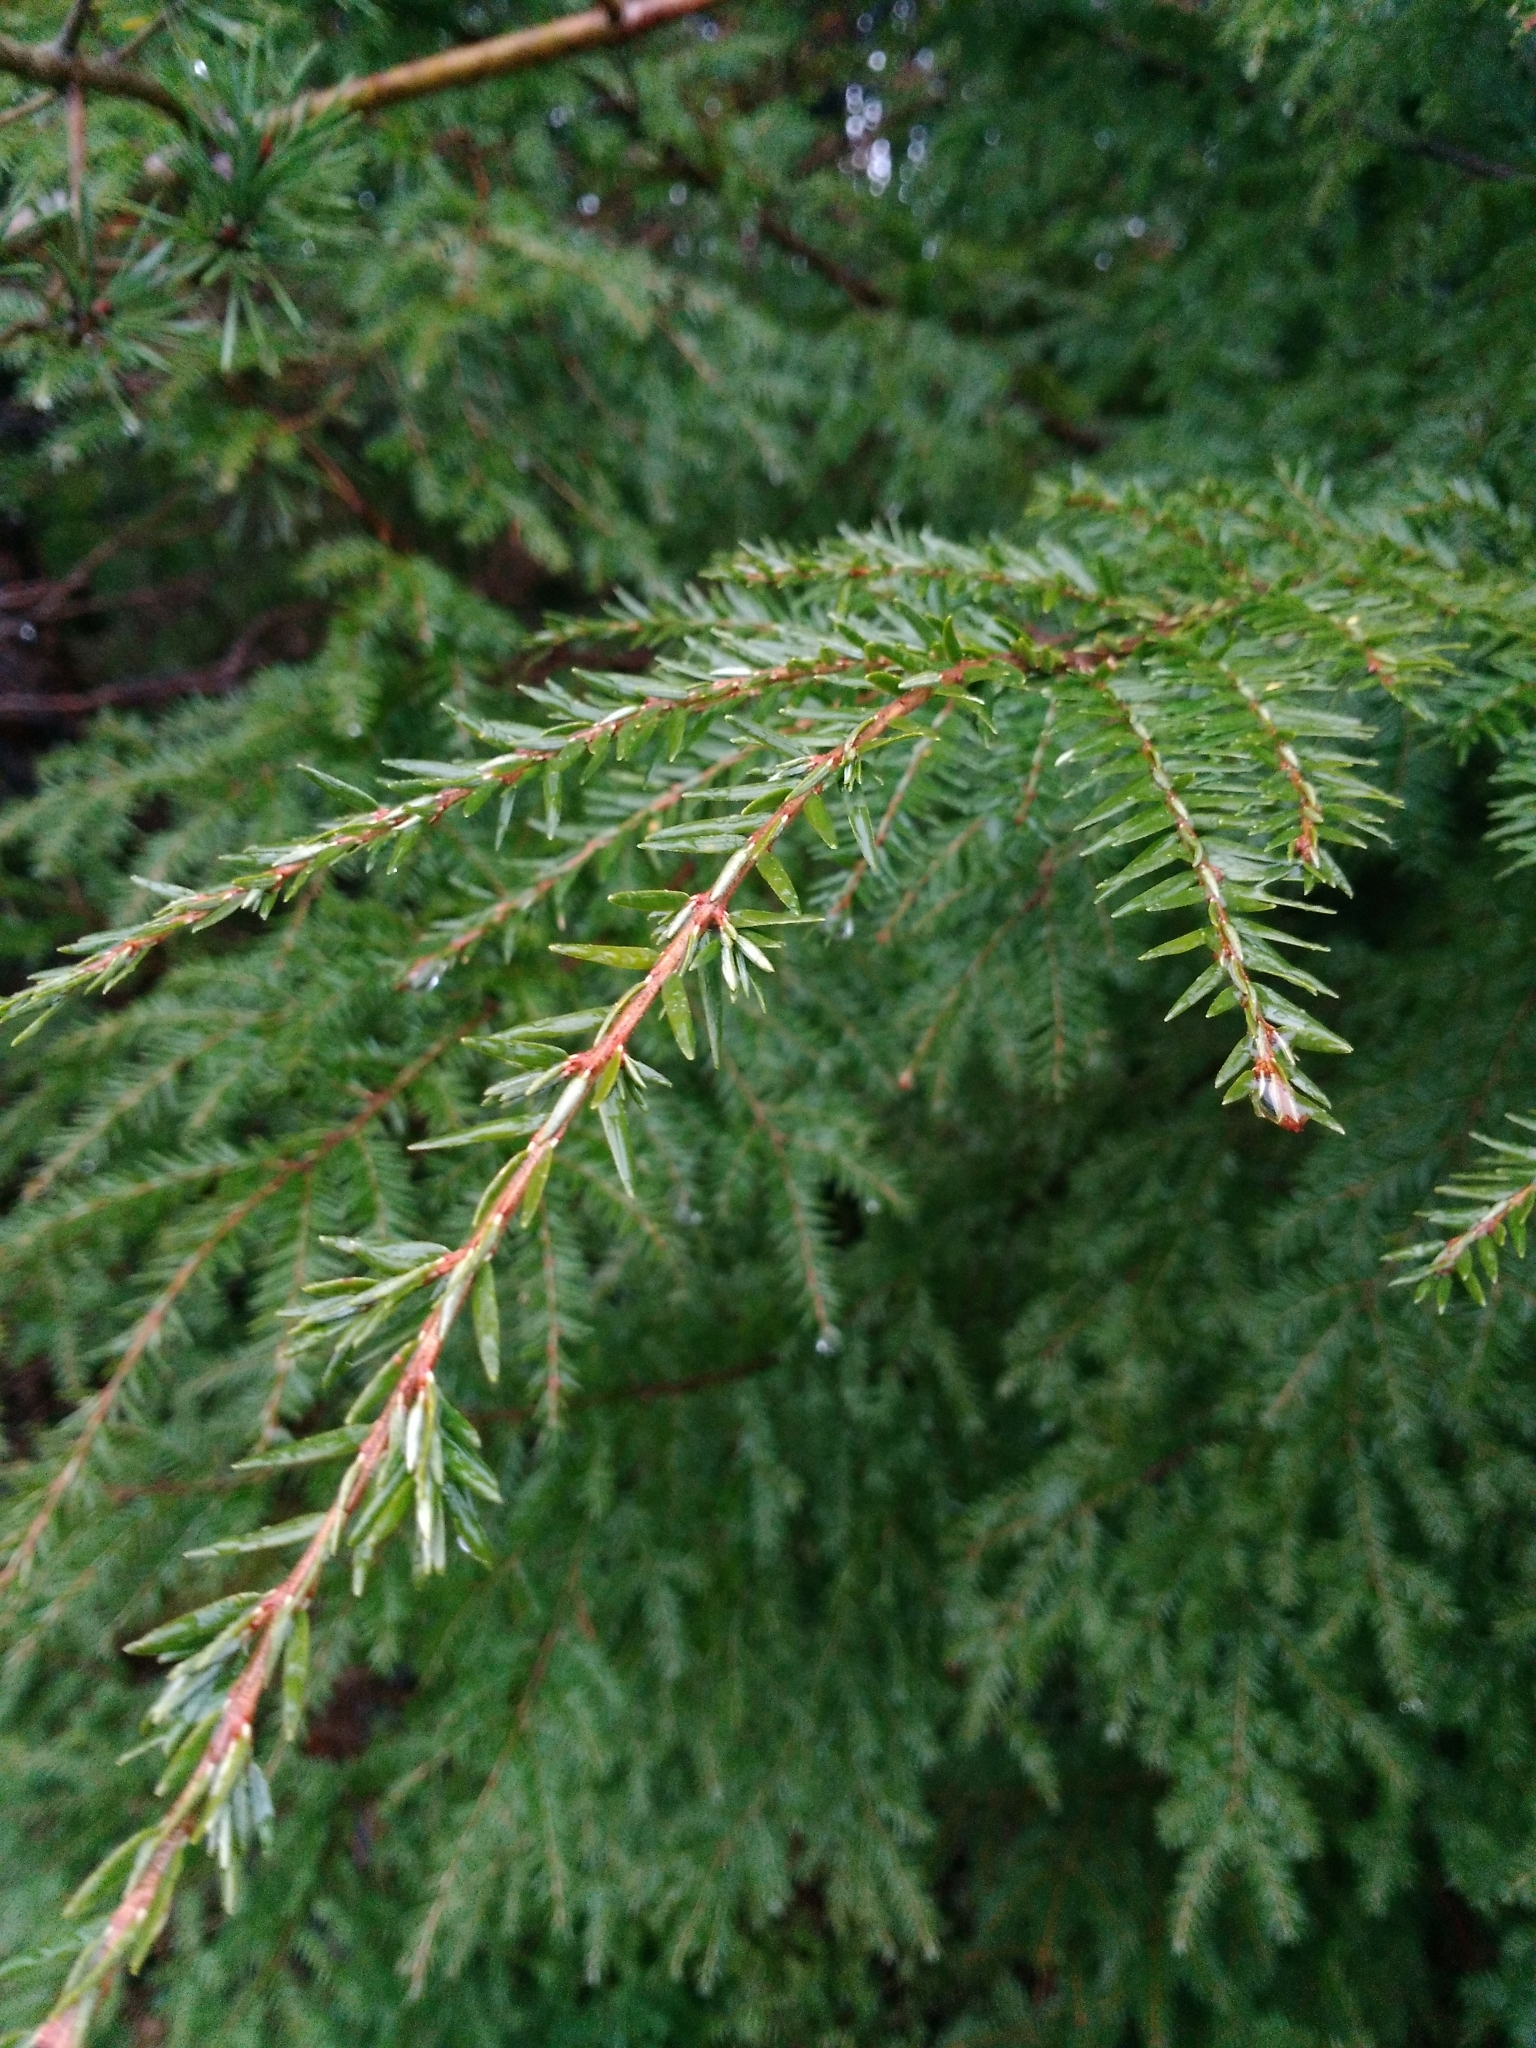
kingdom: Plantae
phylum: Tracheophyta
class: Pinopsida
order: Pinales
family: Pinaceae
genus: Tsuga
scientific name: Tsuga canadensis
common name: Eastern hemlock
